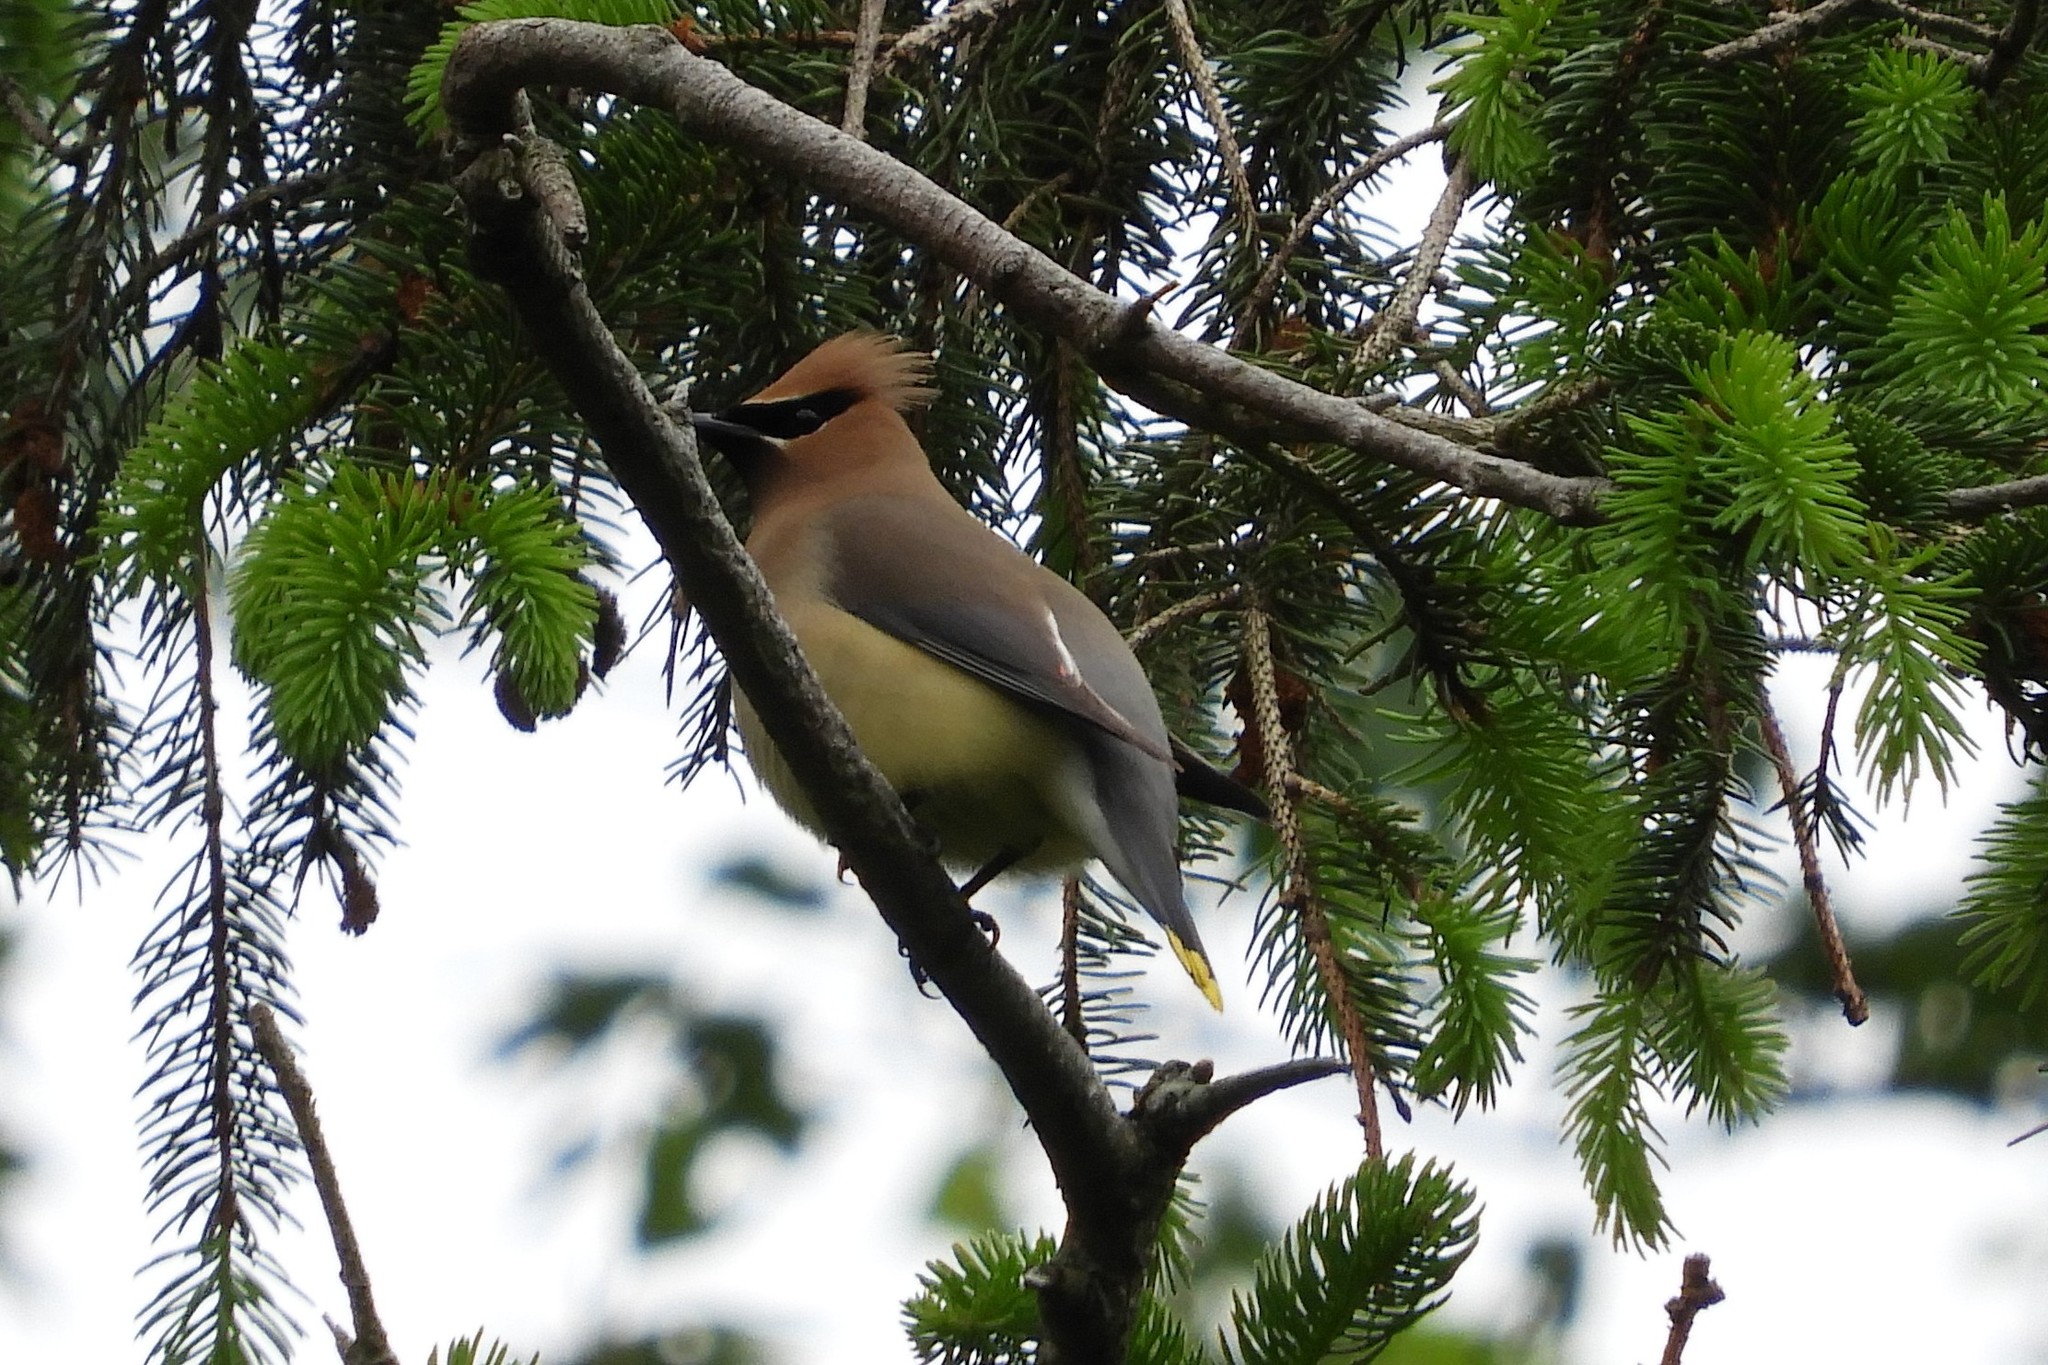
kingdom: Animalia
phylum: Chordata
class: Aves
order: Passeriformes
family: Bombycillidae
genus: Bombycilla
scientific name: Bombycilla cedrorum
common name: Cedar waxwing
